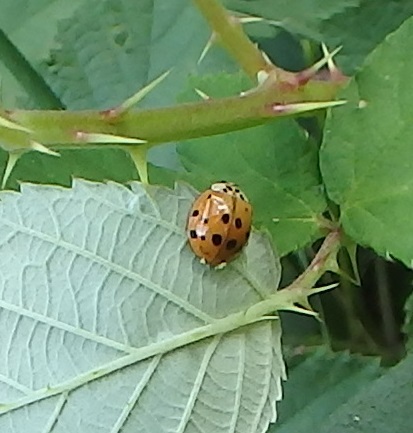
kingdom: Animalia
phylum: Arthropoda
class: Insecta
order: Coleoptera
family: Coccinellidae
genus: Harmonia
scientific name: Harmonia axyridis
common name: Harlequin ladybird
